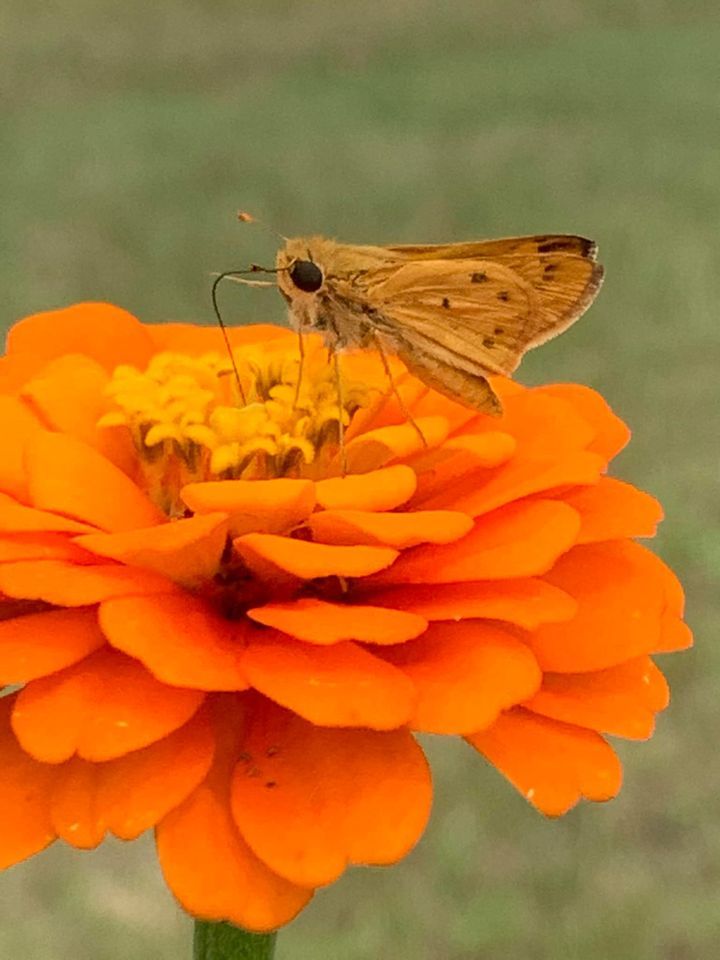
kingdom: Animalia
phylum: Arthropoda
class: Insecta
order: Lepidoptera
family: Hesperiidae
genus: Hylephila
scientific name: Hylephila phyleus
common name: Fiery skipper
